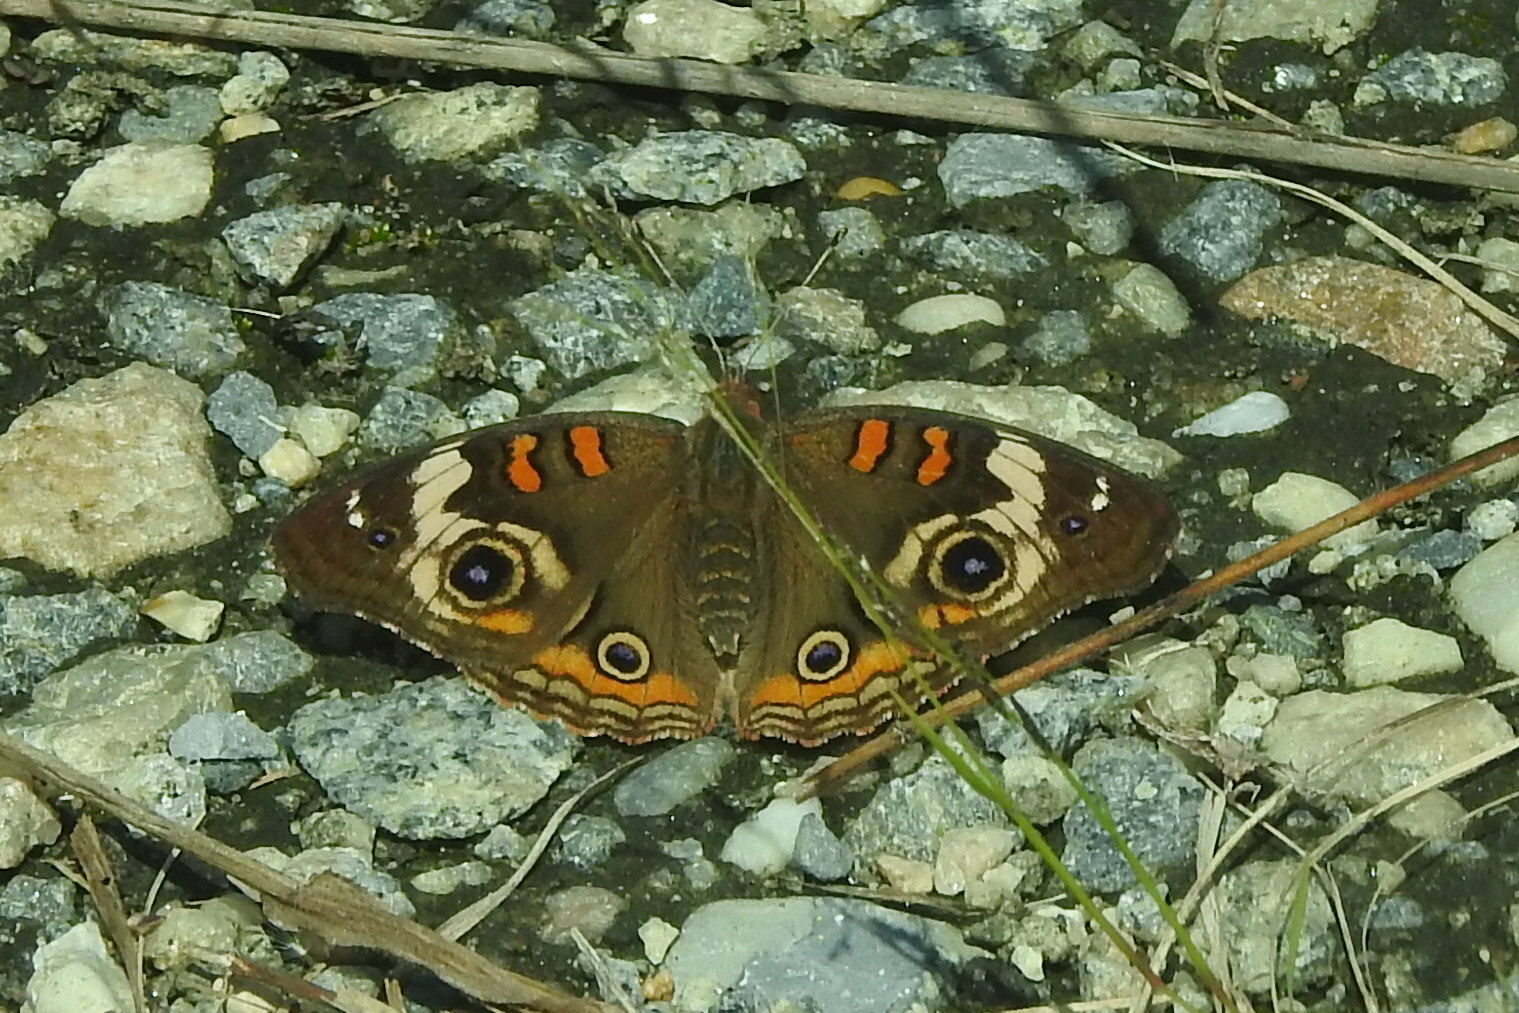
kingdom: Animalia
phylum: Arthropoda
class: Insecta
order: Lepidoptera
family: Nymphalidae
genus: Junonia
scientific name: Junonia coenia
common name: Common buckeye
